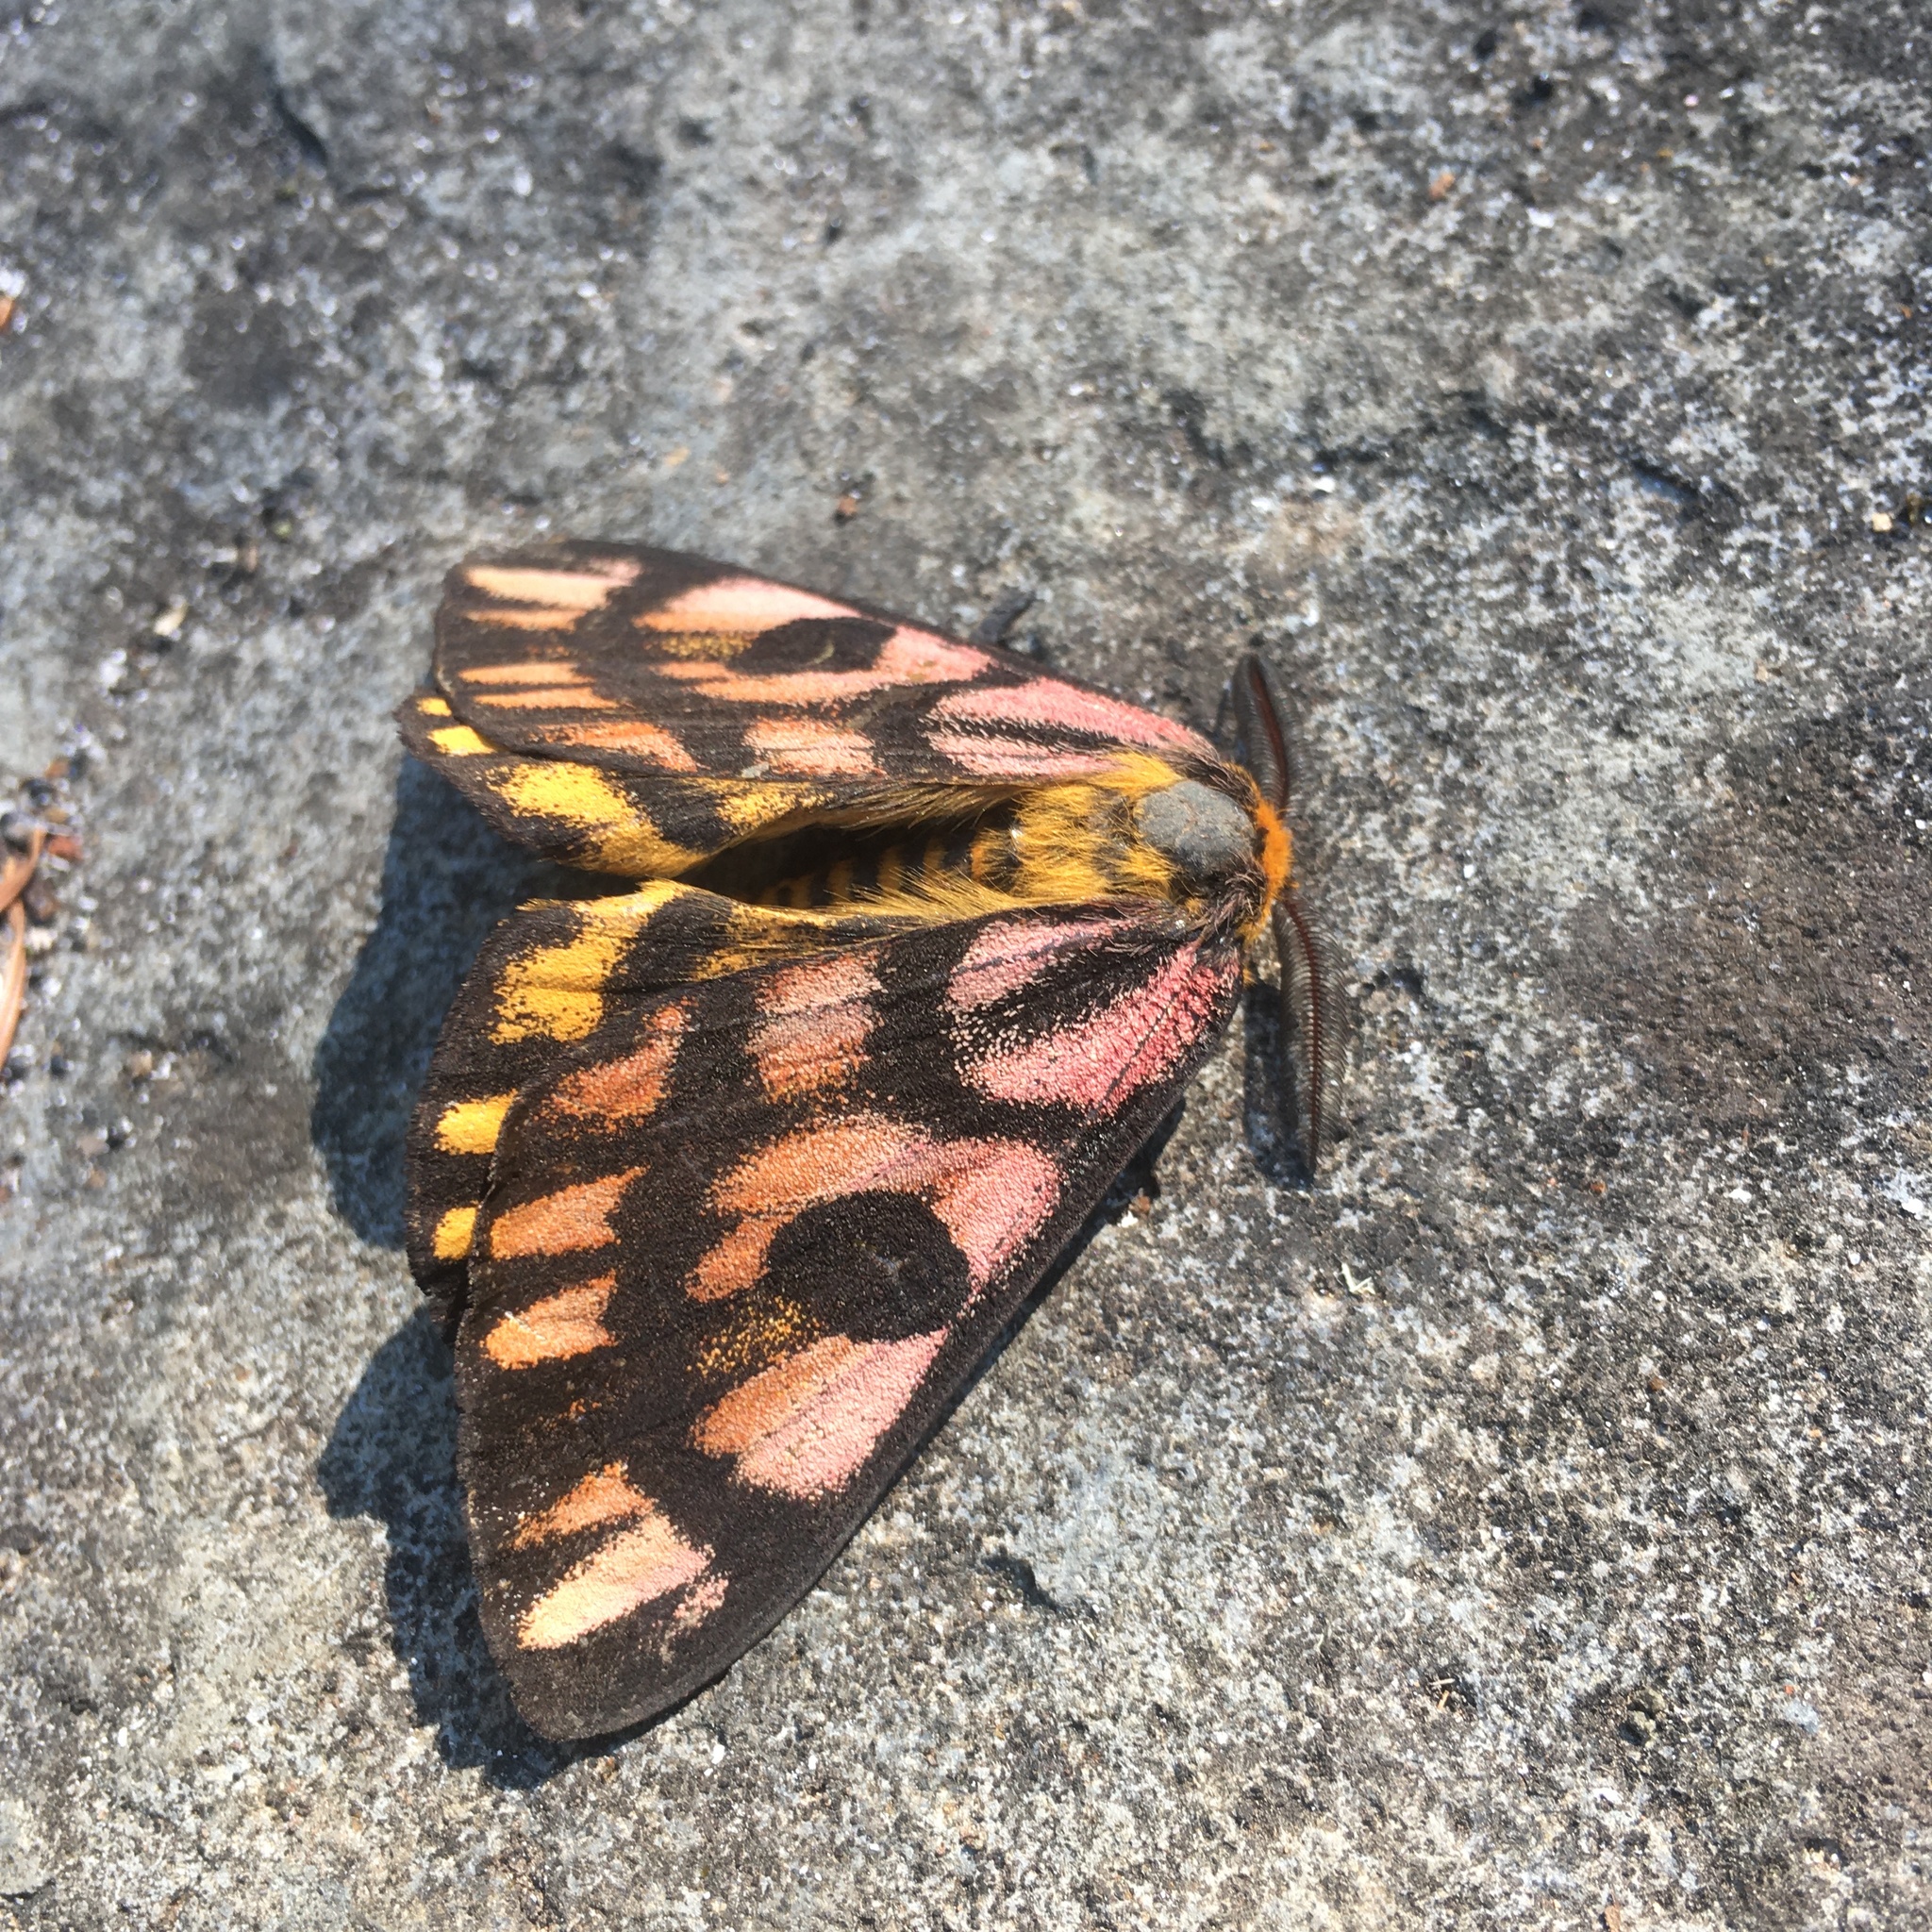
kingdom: Animalia
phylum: Arthropoda
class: Insecta
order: Lepidoptera
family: Saturniidae
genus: Hemileuca
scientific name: Hemileuca eglanterina
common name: Western sheepmoth
